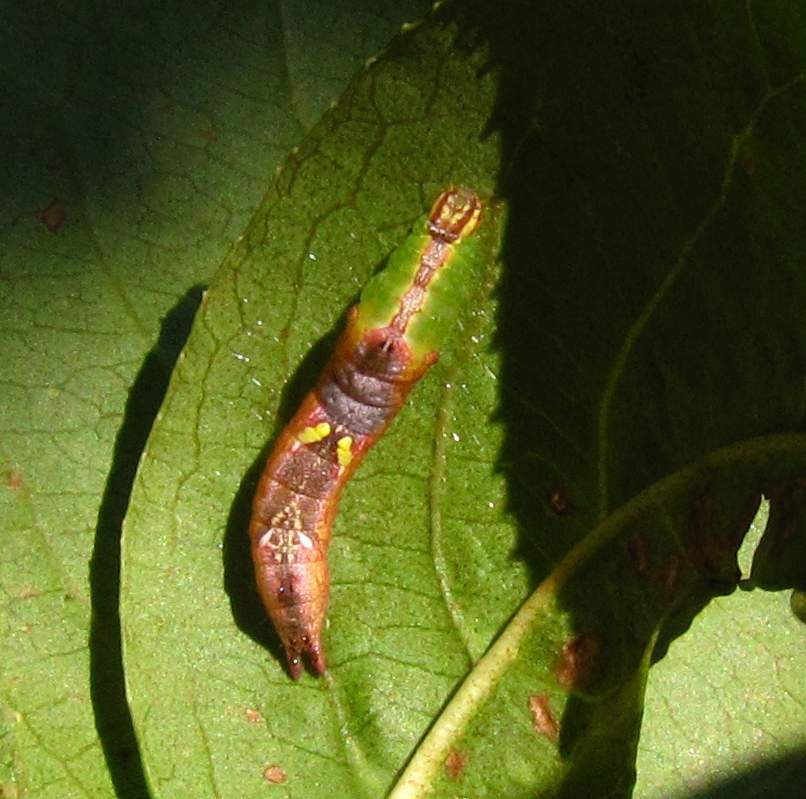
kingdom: Animalia
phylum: Arthropoda
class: Insecta
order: Lepidoptera
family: Notodontidae
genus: Schizura
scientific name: Schizura
